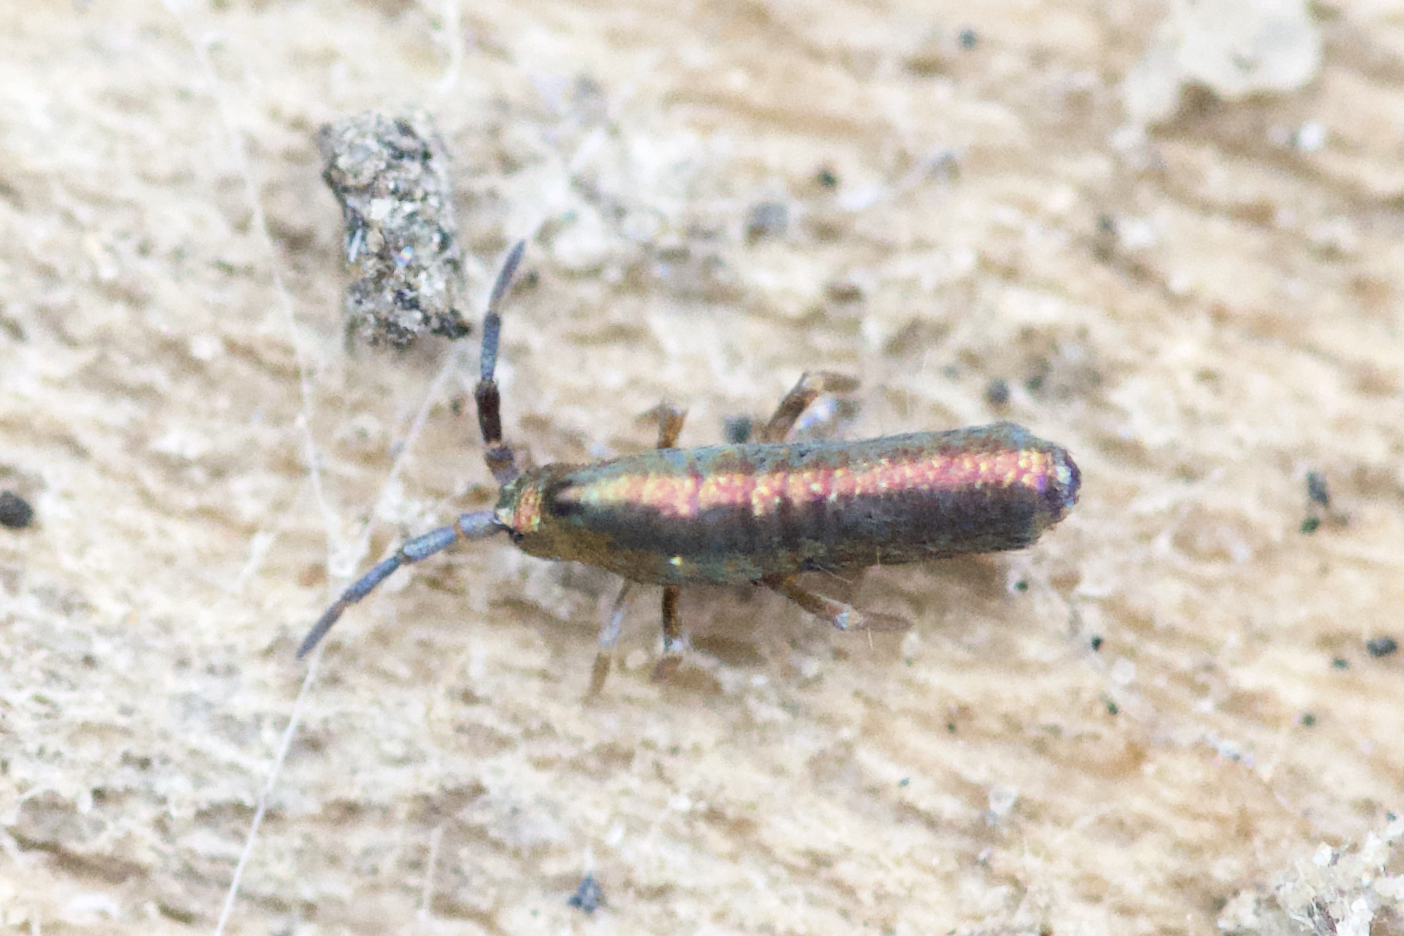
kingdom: Animalia
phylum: Arthropoda
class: Collembola
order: Entomobryomorpha
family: Entomobryidae
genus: Lepidocyrtus
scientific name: Lepidocyrtus paradoxus
